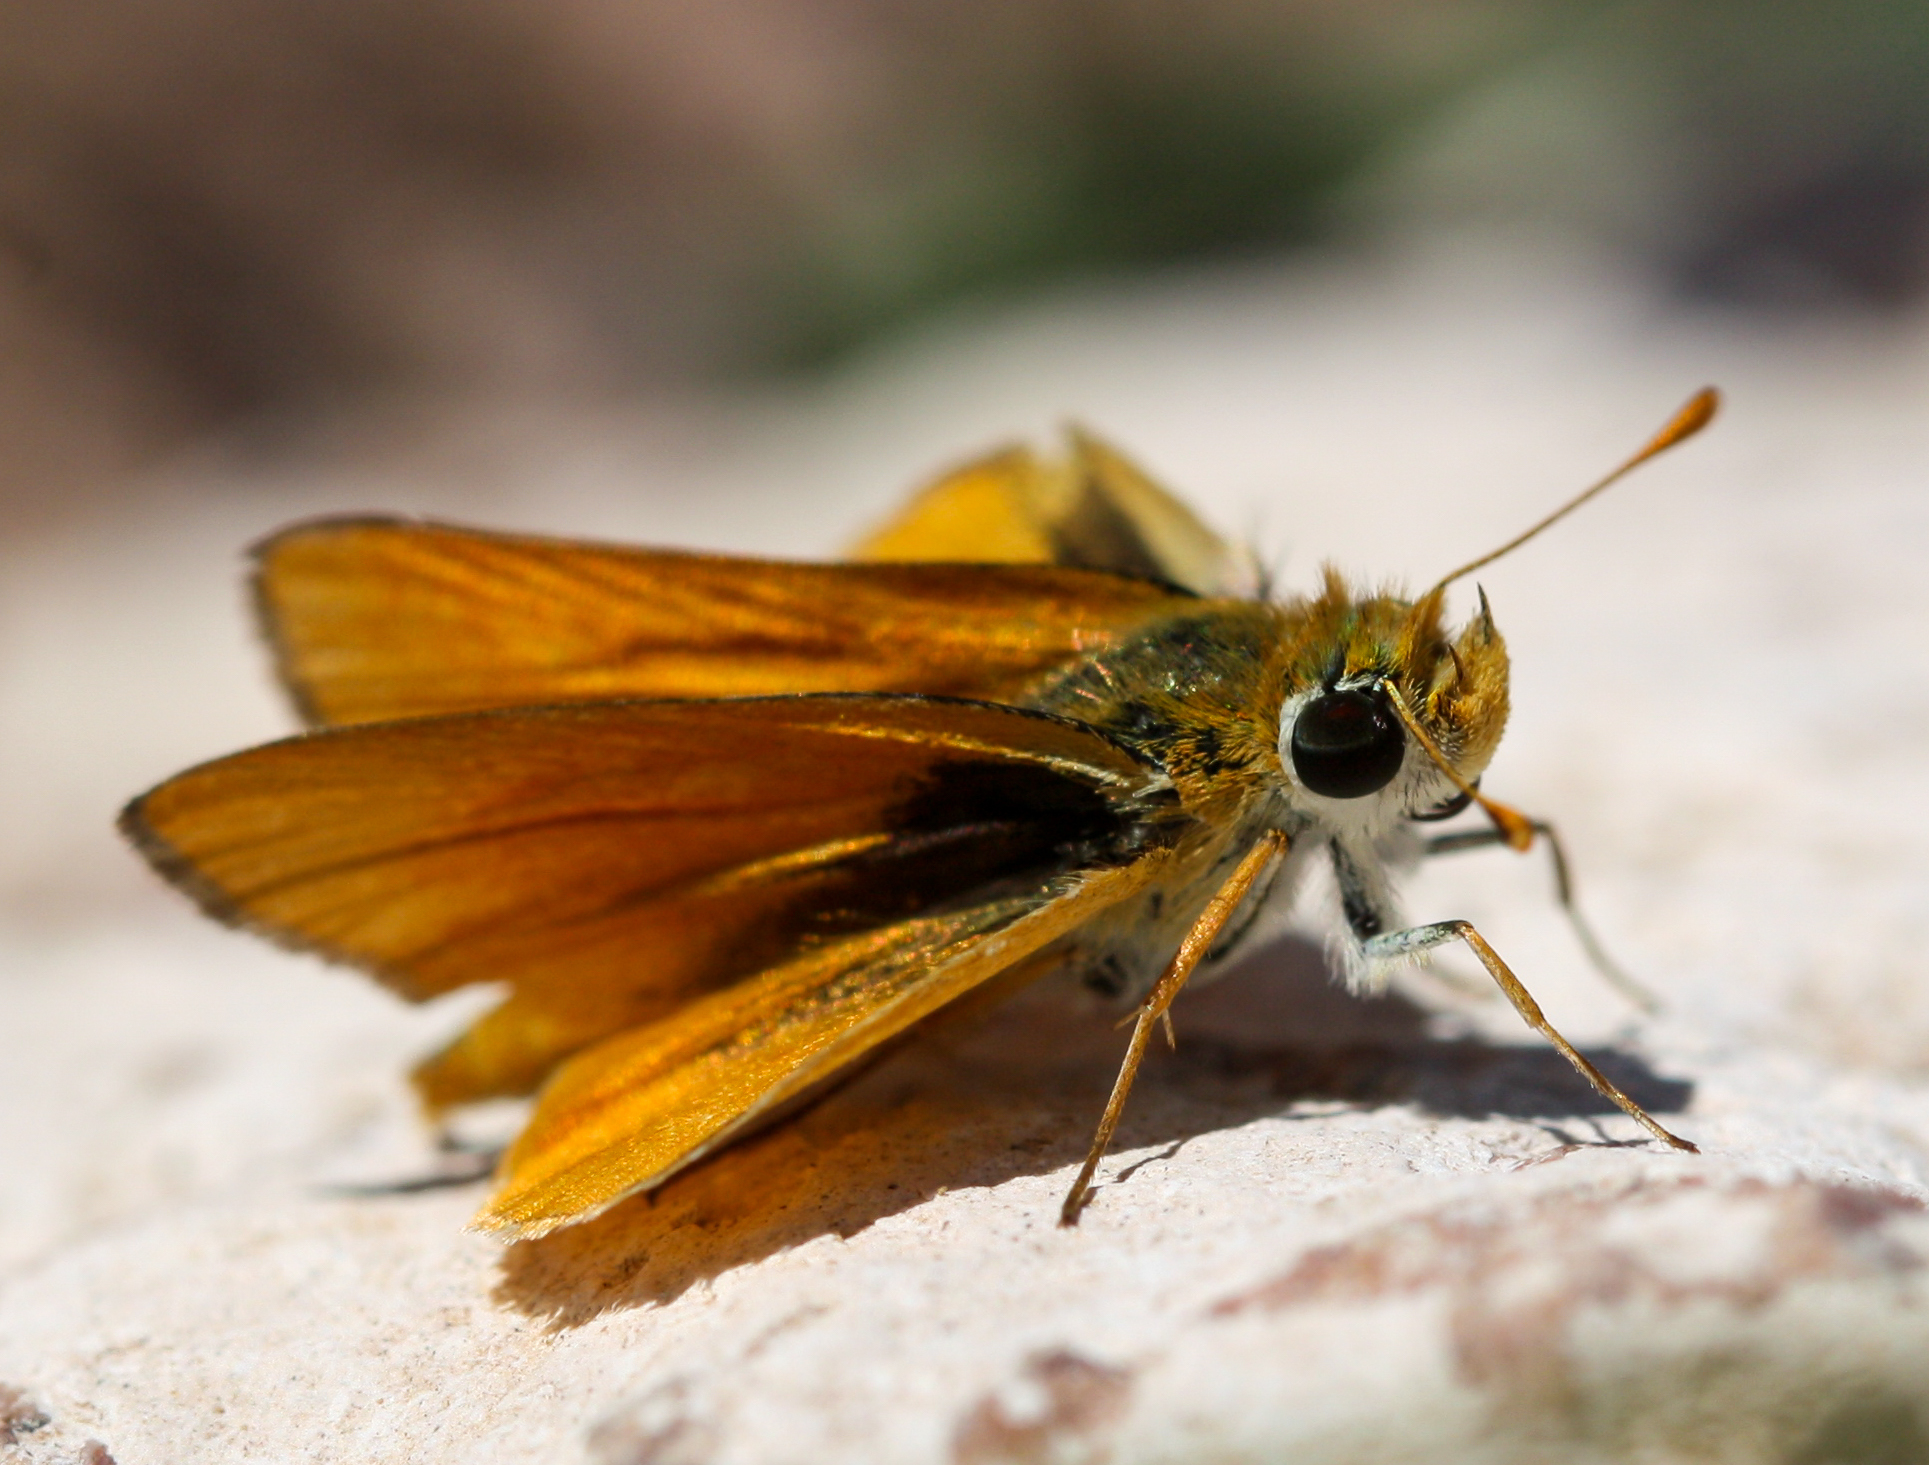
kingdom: Animalia
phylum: Arthropoda
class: Insecta
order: Lepidoptera
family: Hesperiidae
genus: Copaeodes
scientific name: Copaeodes aurantiaca
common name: Orange skipperling
